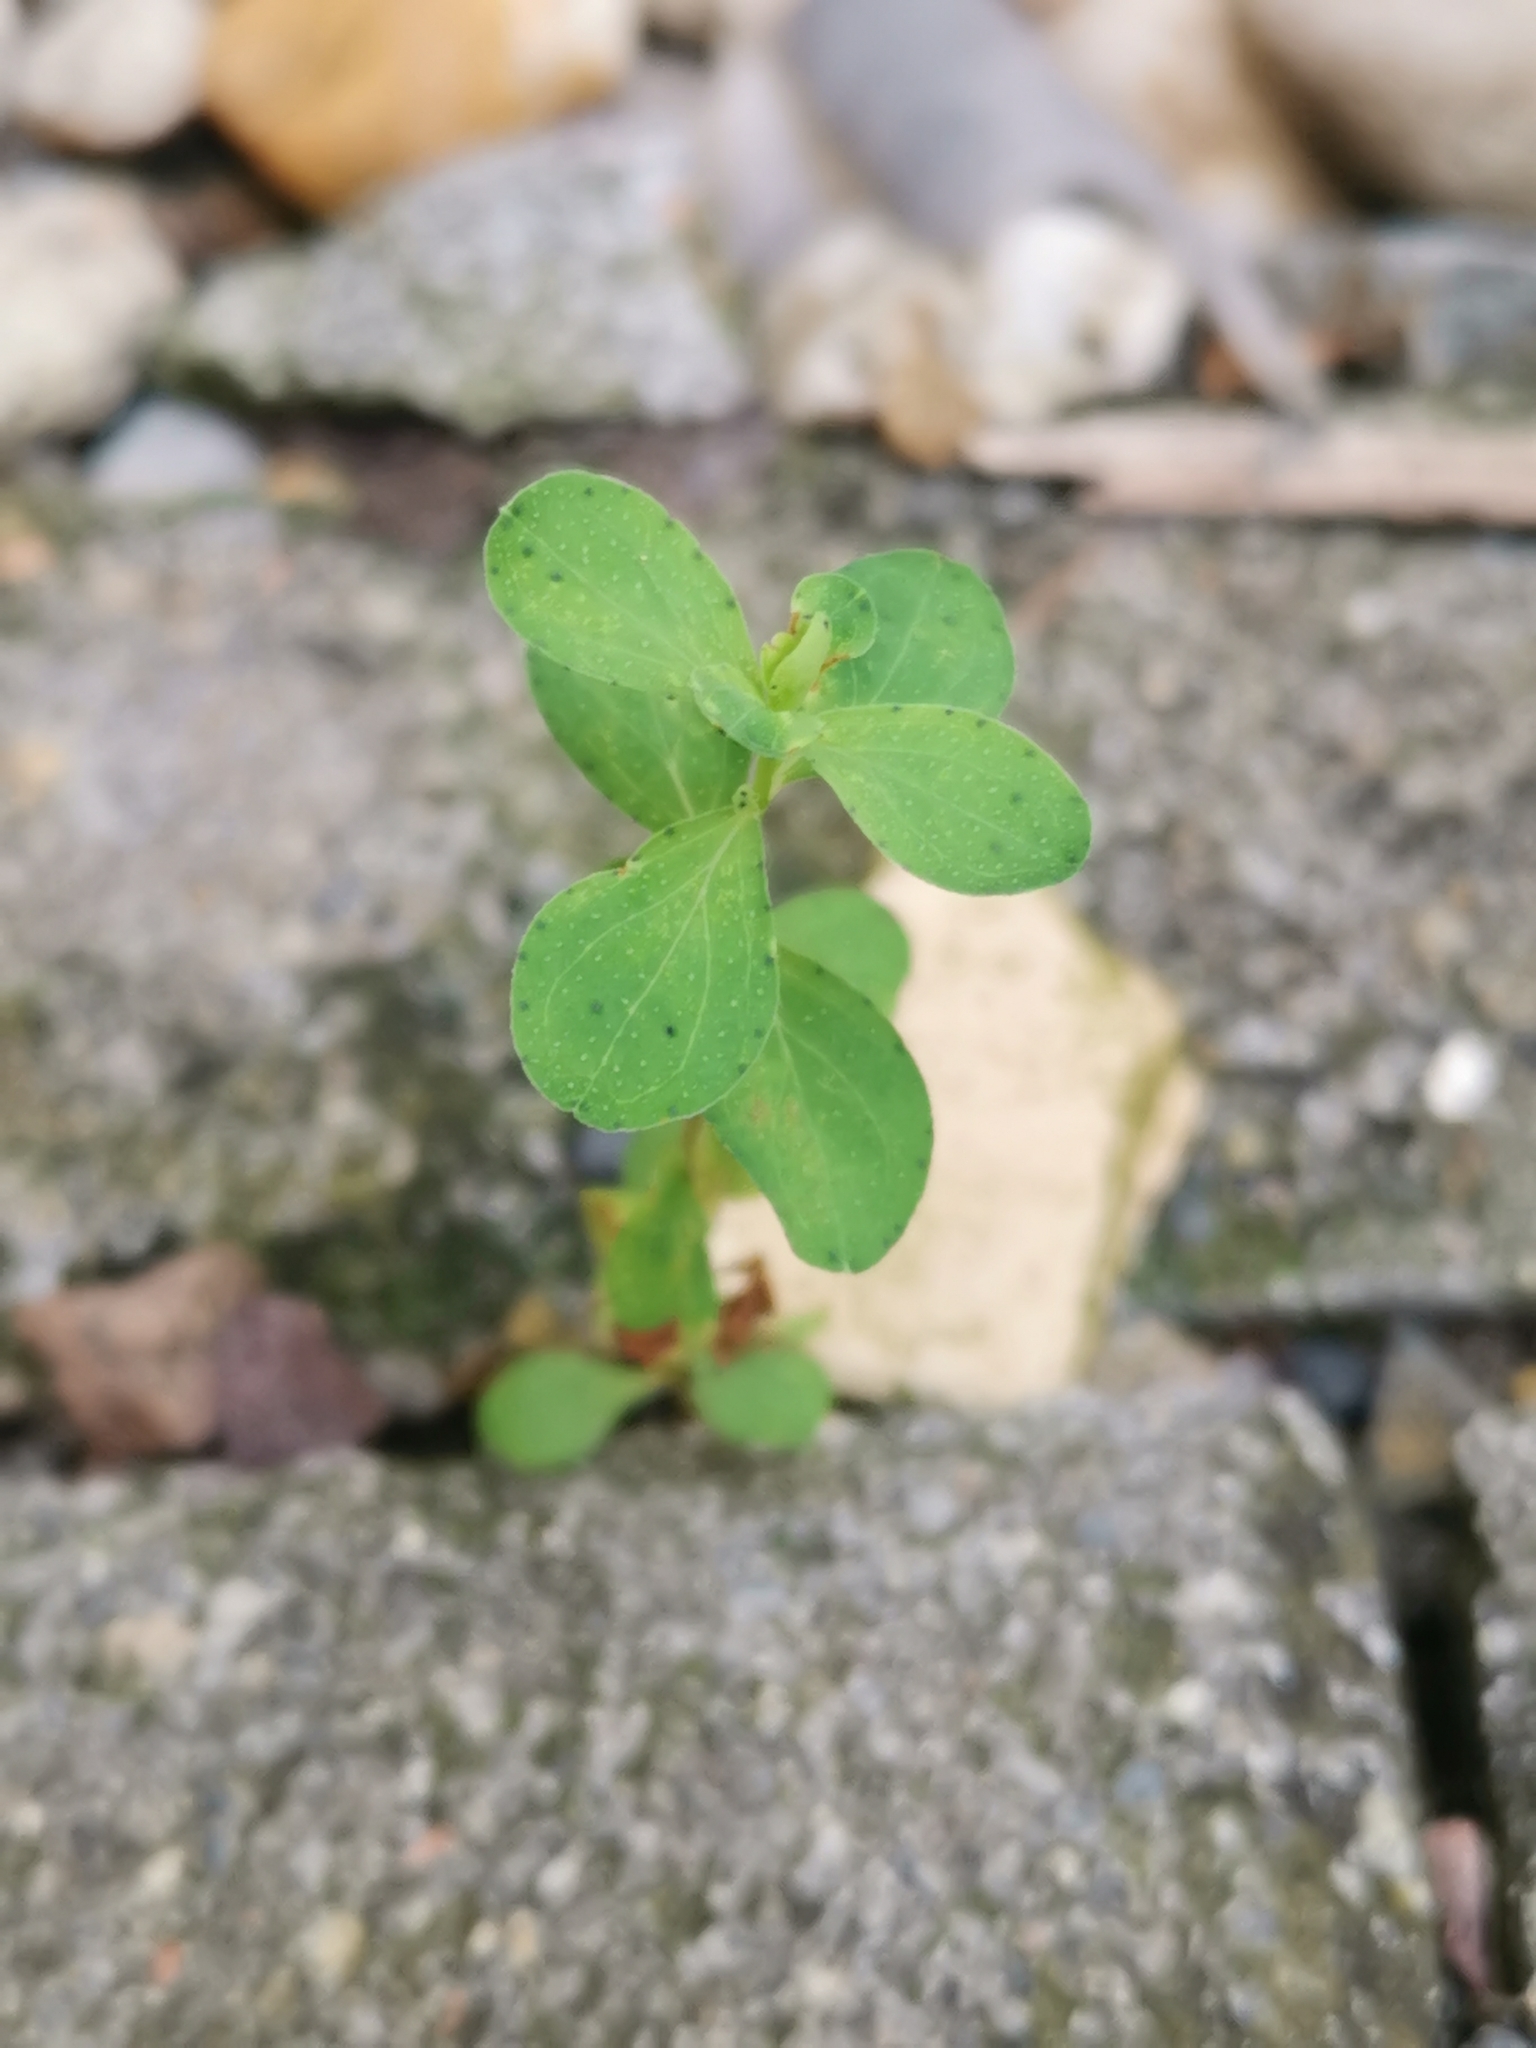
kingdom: Plantae
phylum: Tracheophyta
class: Magnoliopsida
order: Malpighiales
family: Euphorbiaceae
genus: Euphorbia
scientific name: Euphorbia peplus
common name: Petty spurge
